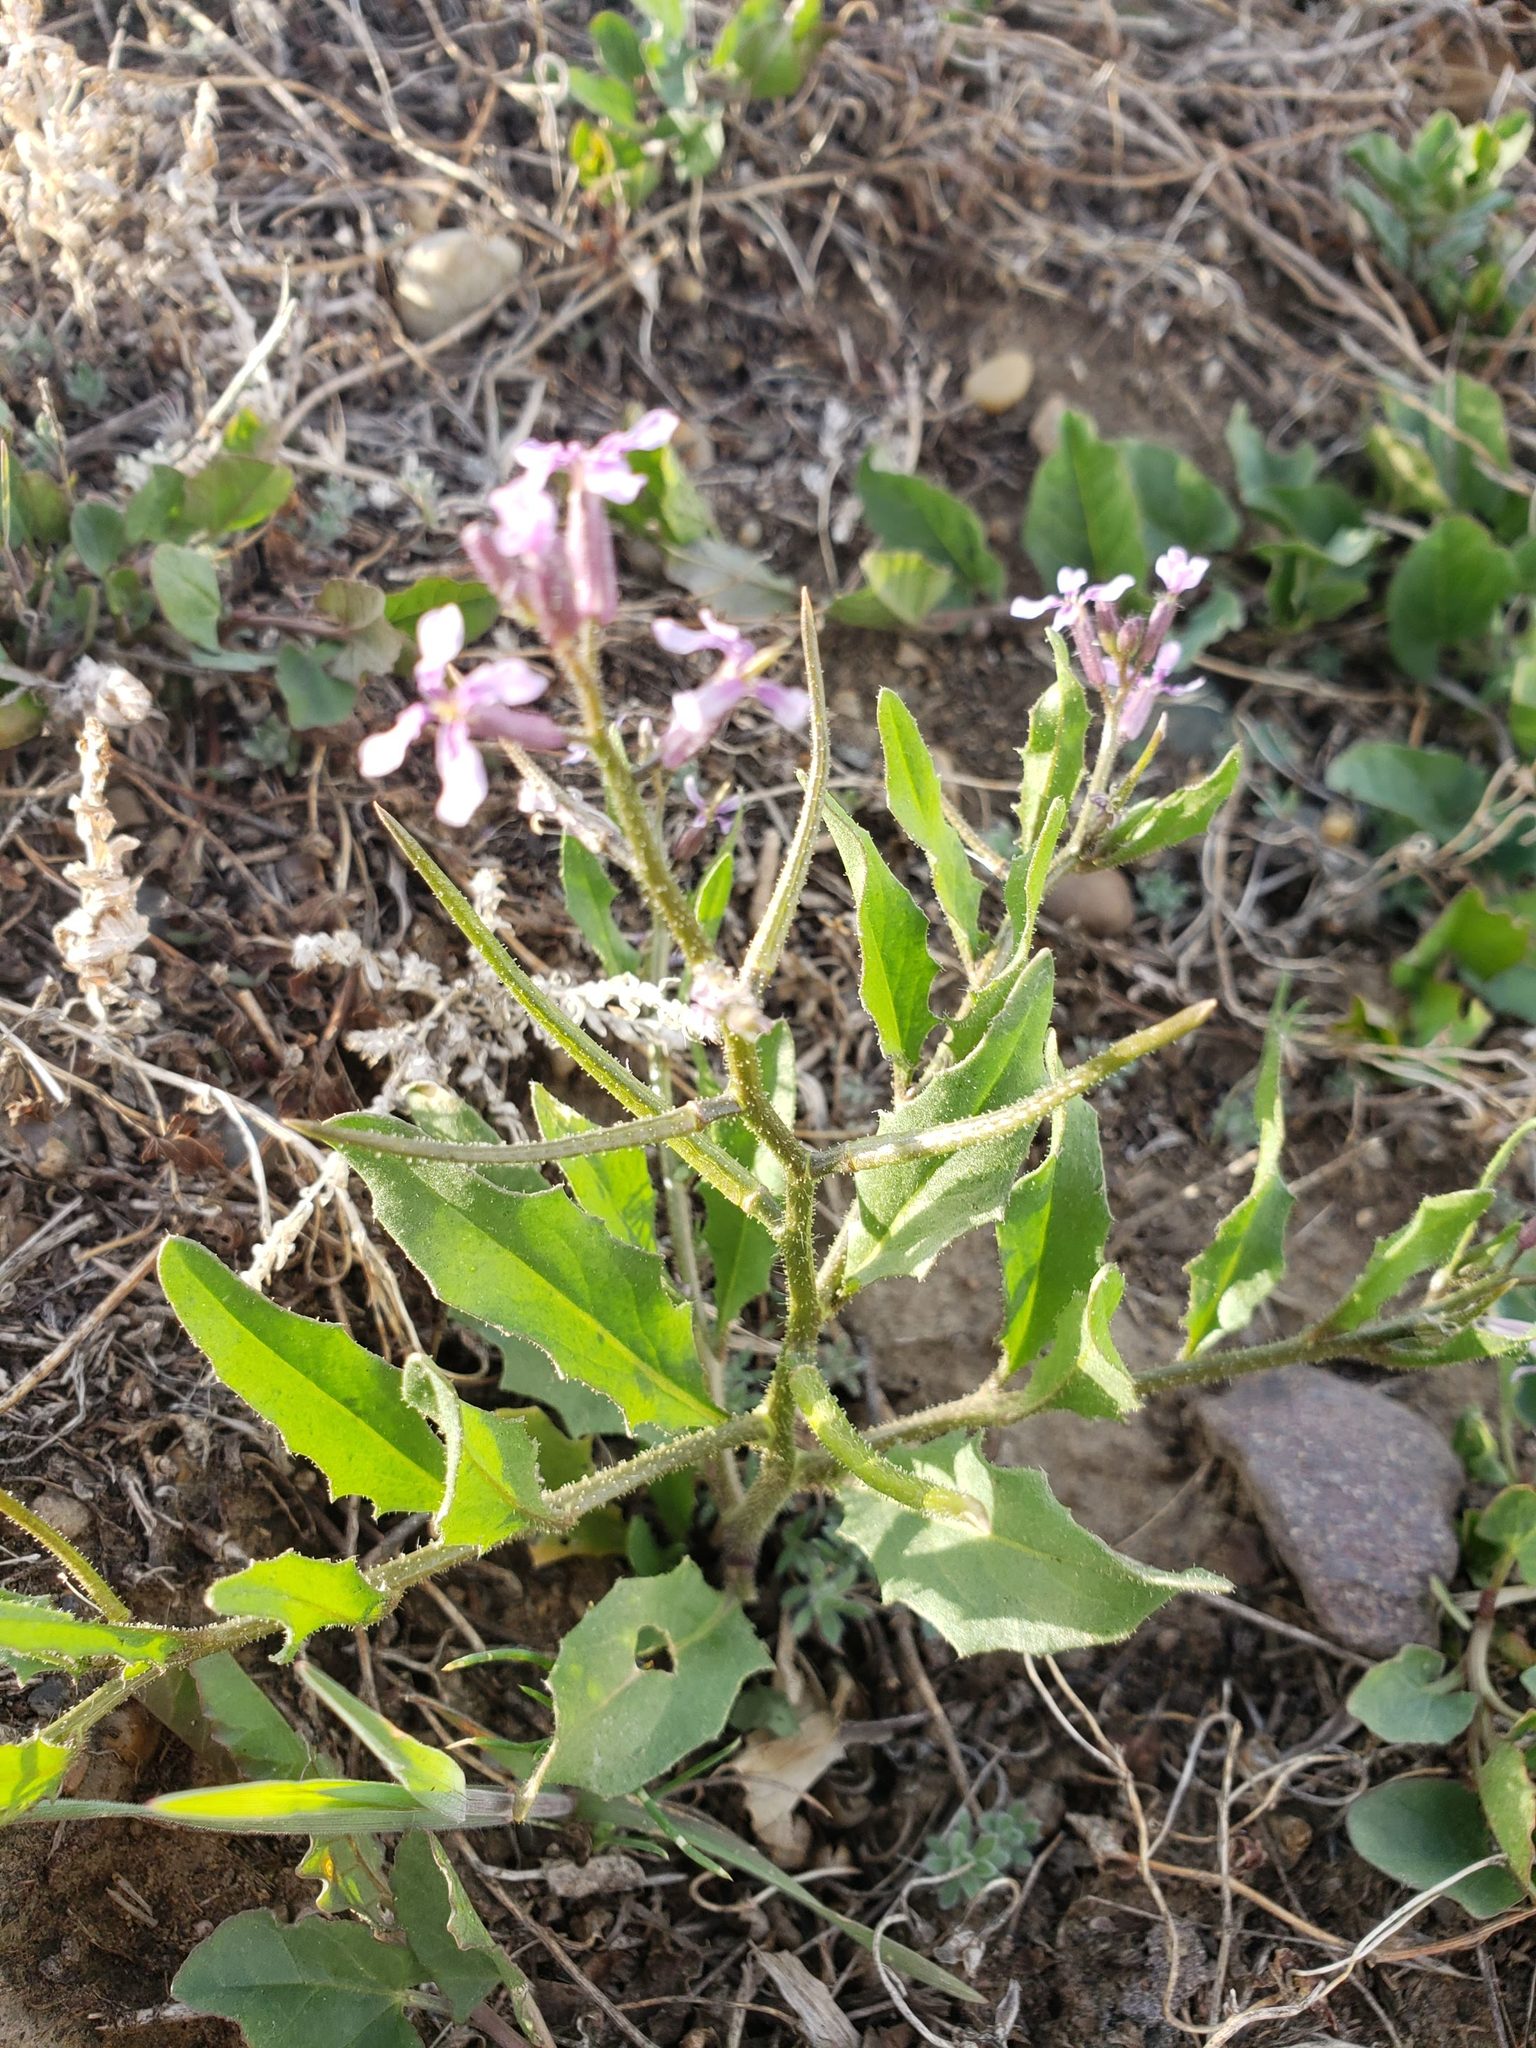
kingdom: Plantae
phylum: Tracheophyta
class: Magnoliopsida
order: Brassicales
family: Brassicaceae
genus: Chorispora
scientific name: Chorispora tenella
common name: Crossflower
